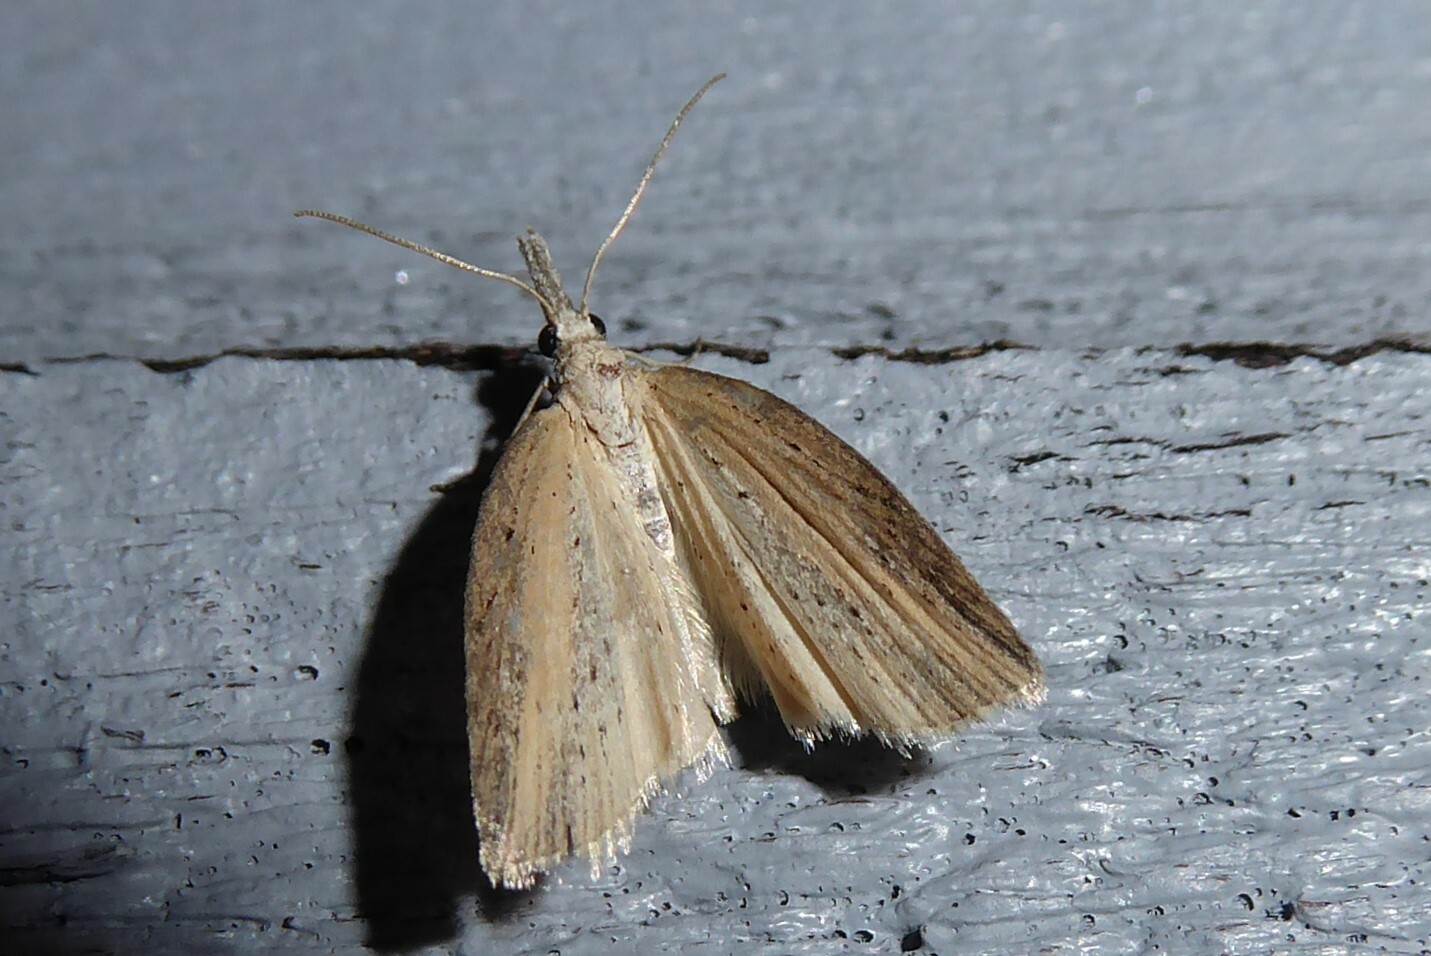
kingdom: Animalia
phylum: Arthropoda
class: Insecta
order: Lepidoptera
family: Geometridae
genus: Microdes
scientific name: Microdes epicryptis
